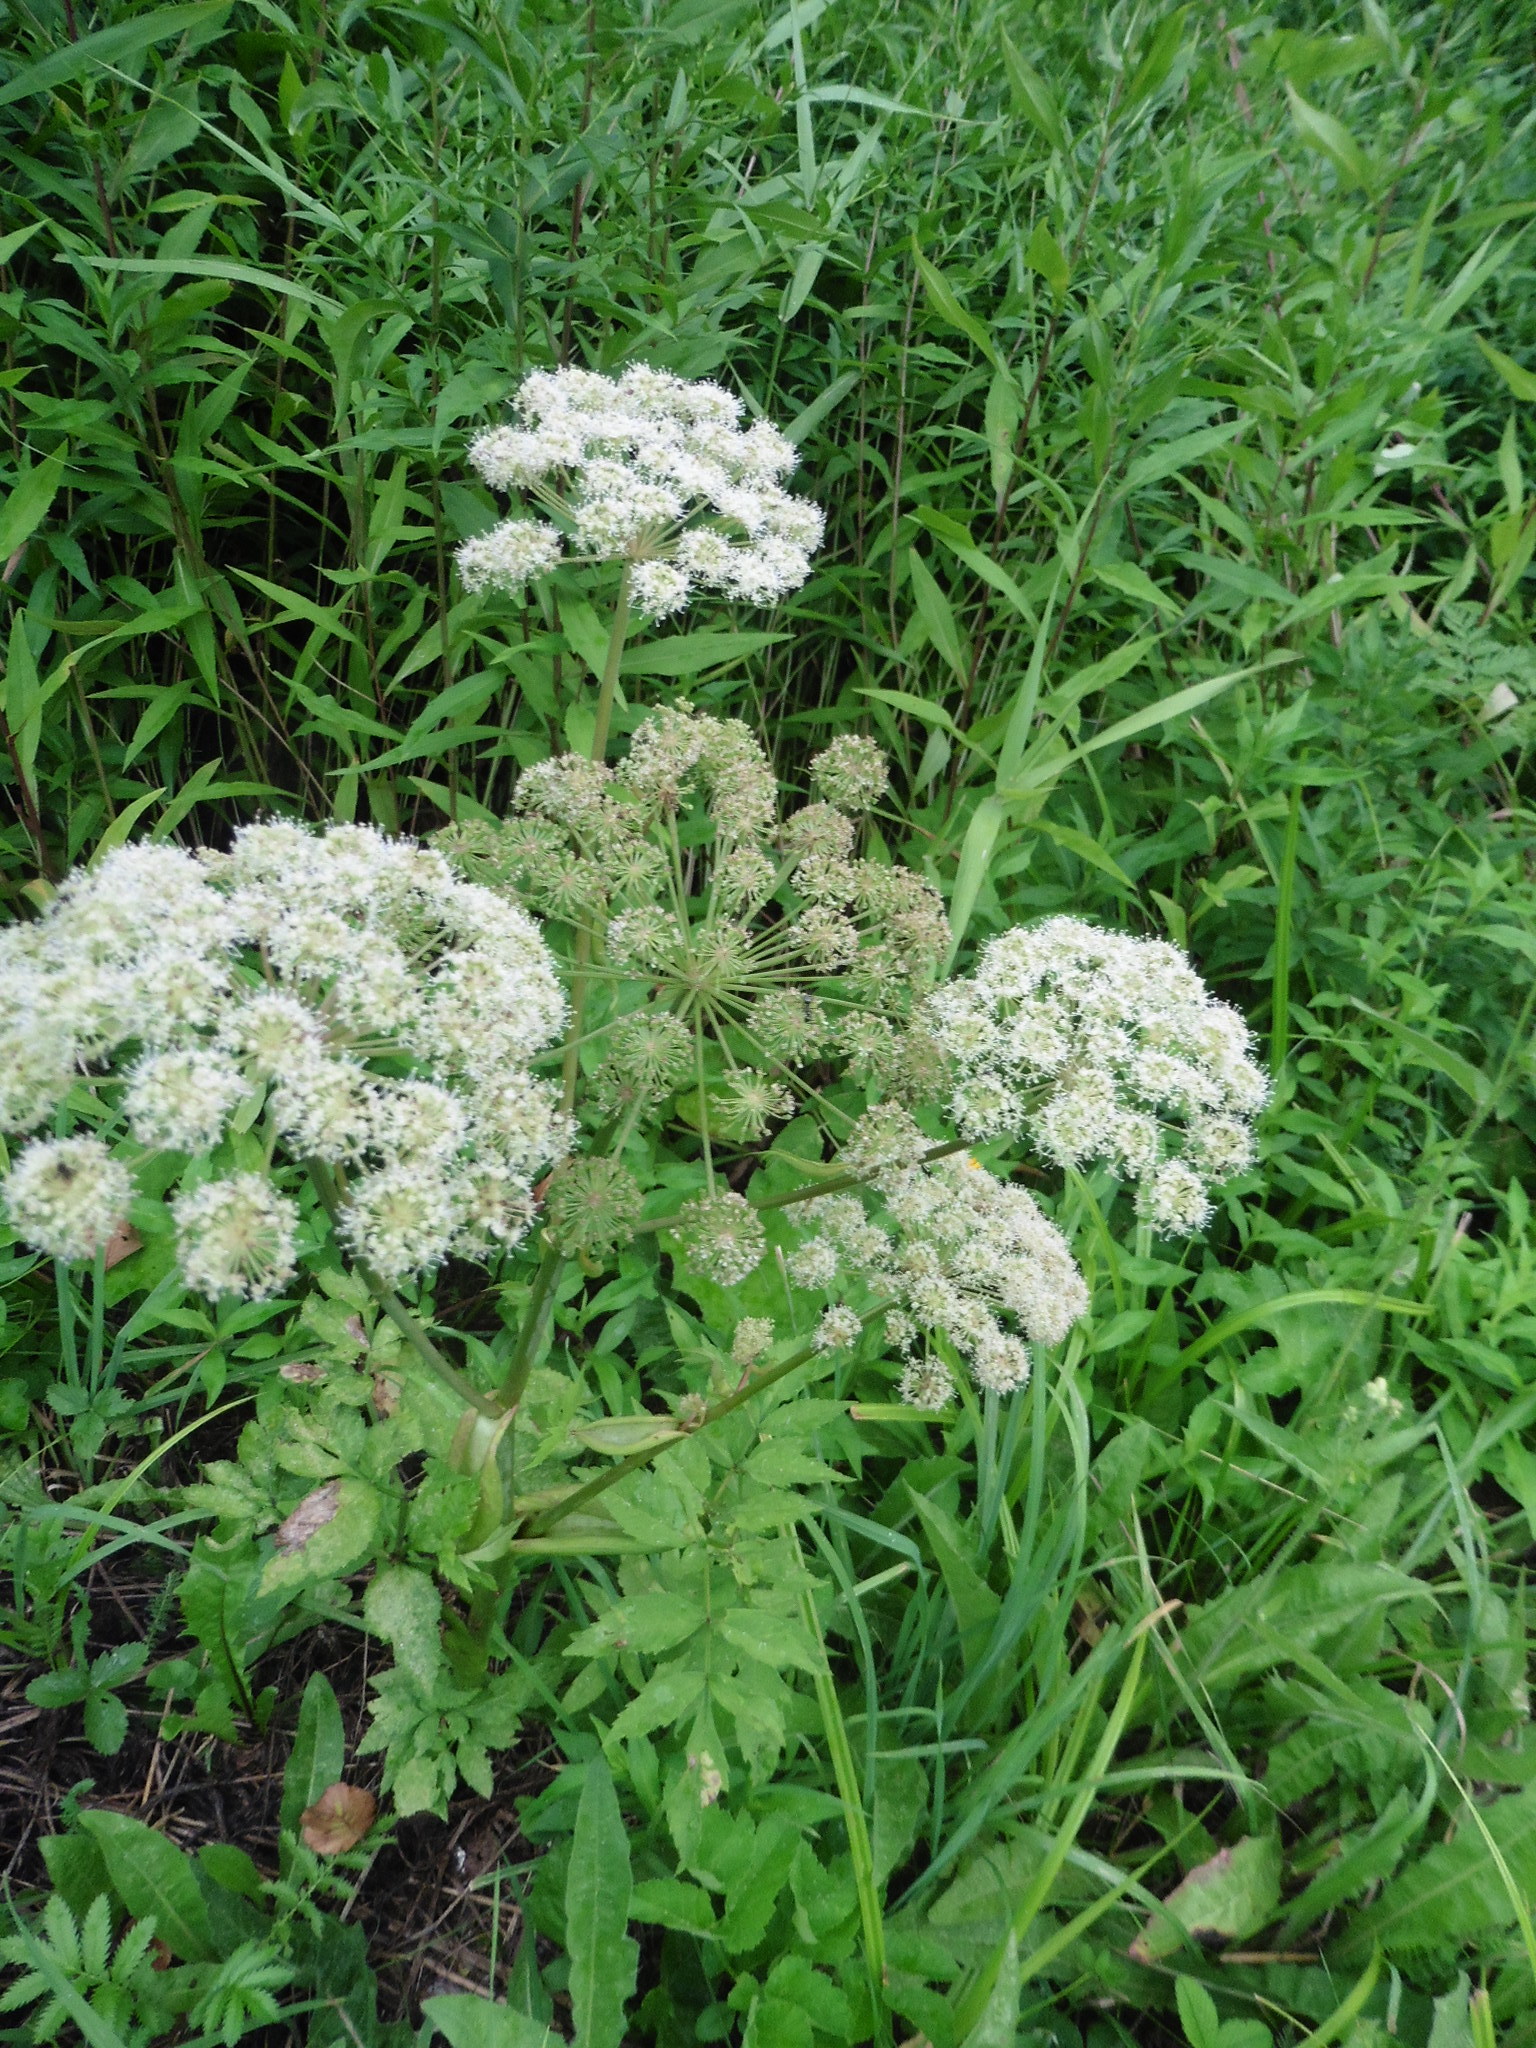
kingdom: Plantae
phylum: Tracheophyta
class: Magnoliopsida
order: Apiales
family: Apiaceae
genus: Angelica
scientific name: Angelica sylvestris
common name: Wild angelica
